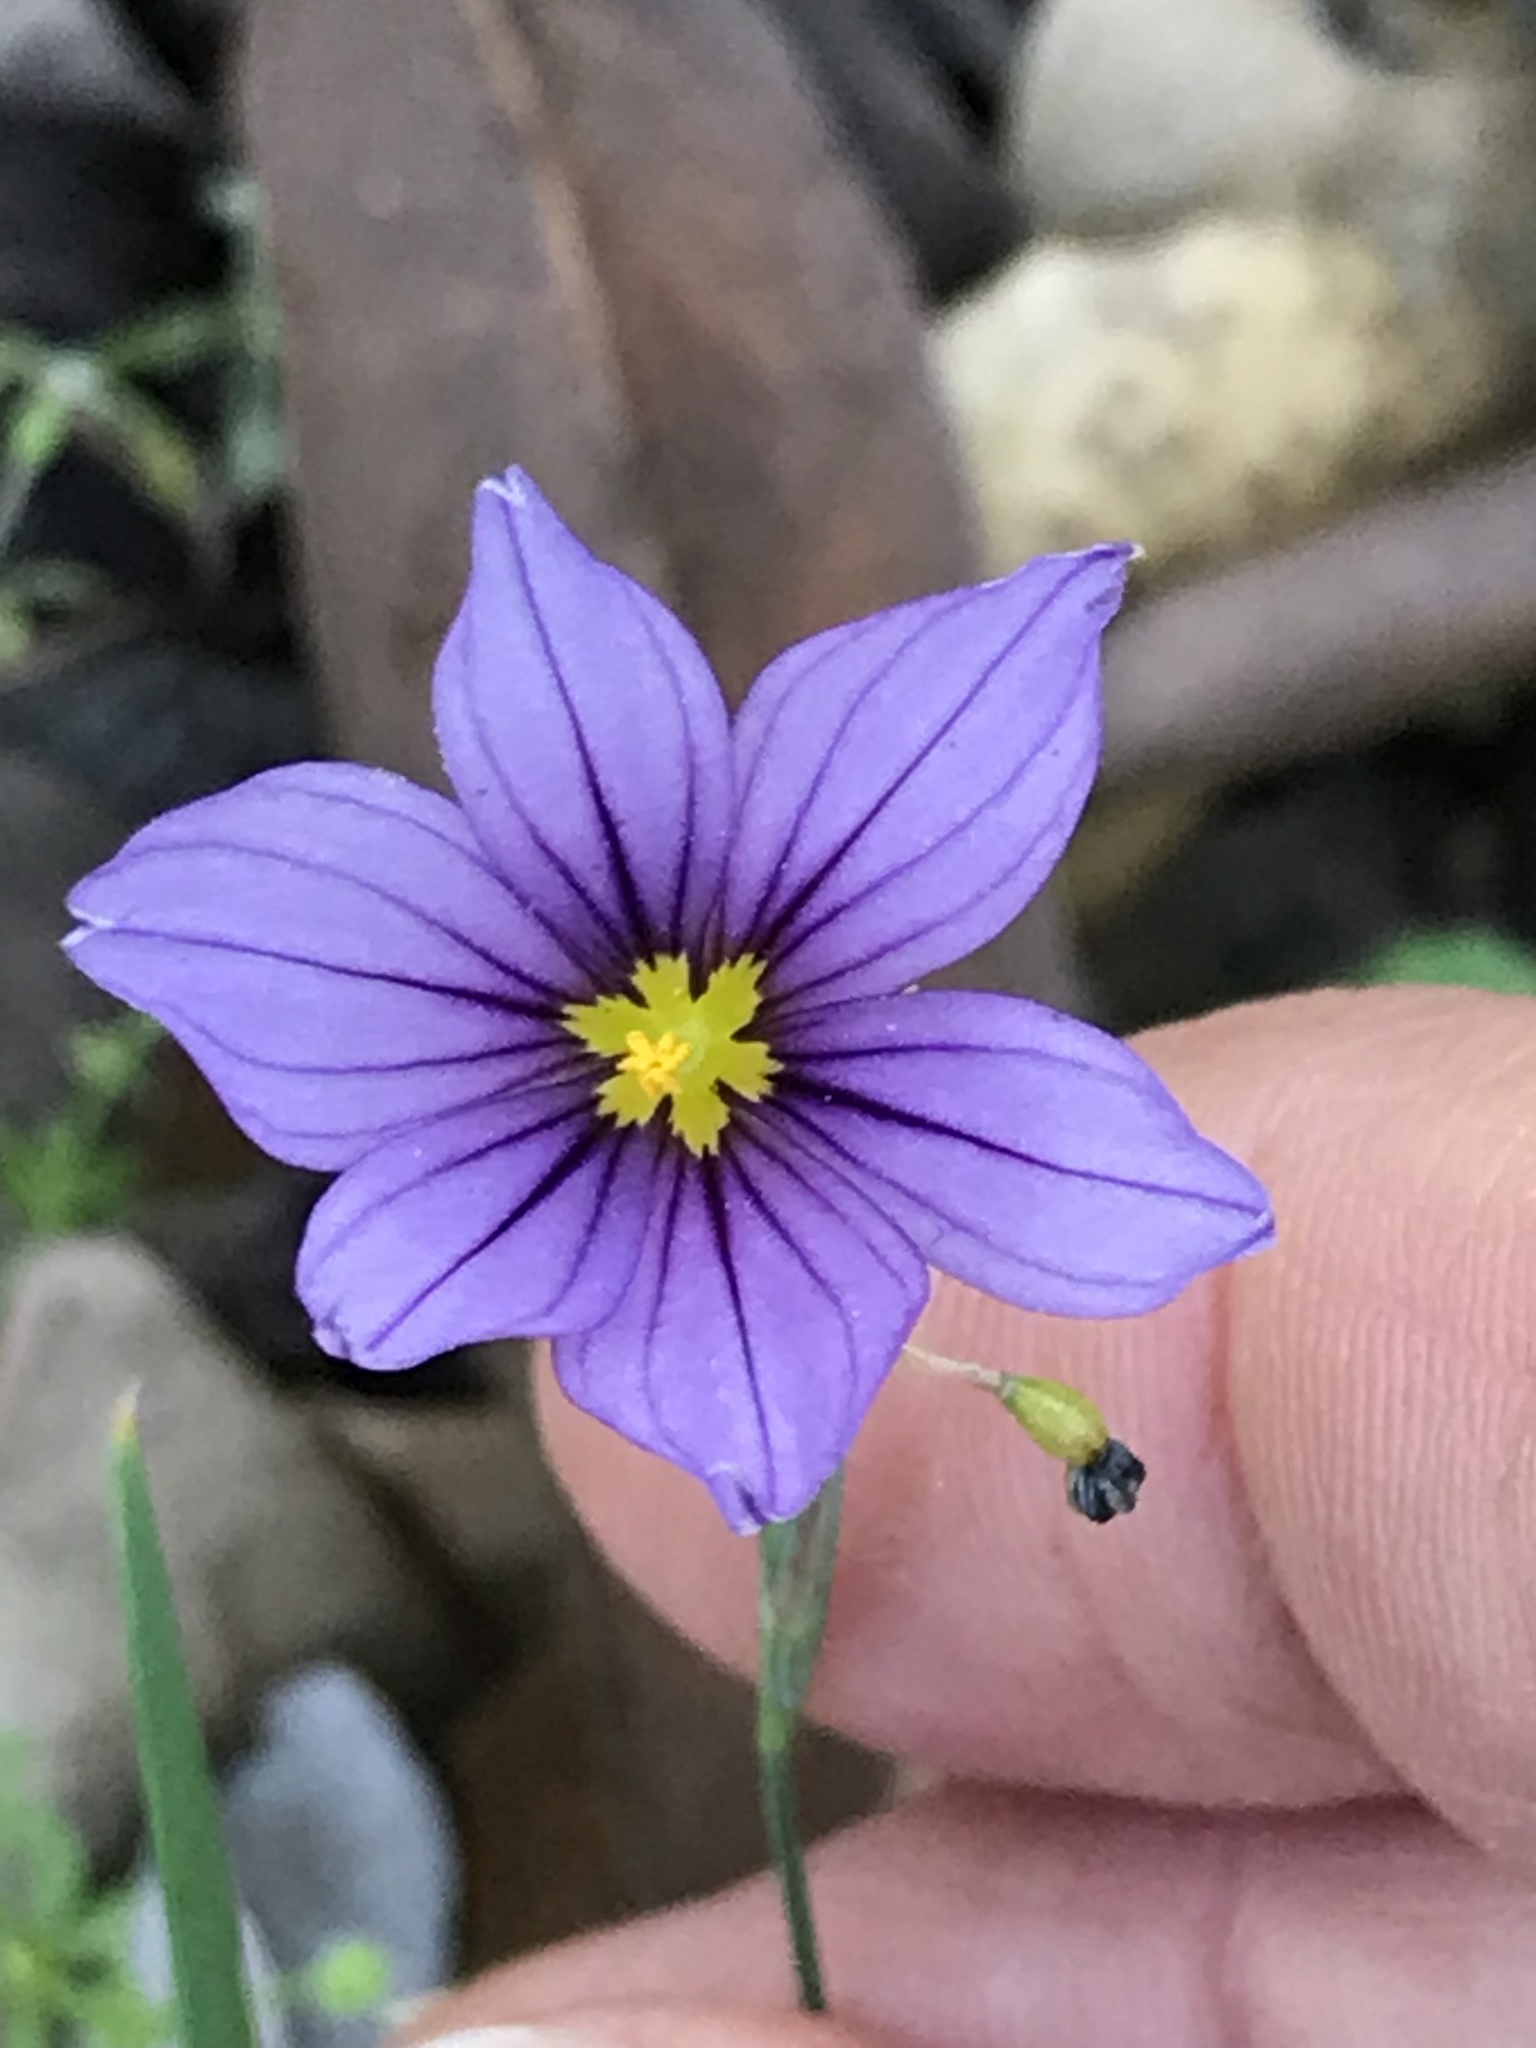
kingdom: Plantae
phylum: Tracheophyta
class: Liliopsida
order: Asparagales
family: Iridaceae
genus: Sisyrinchium
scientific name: Sisyrinchium bellum
